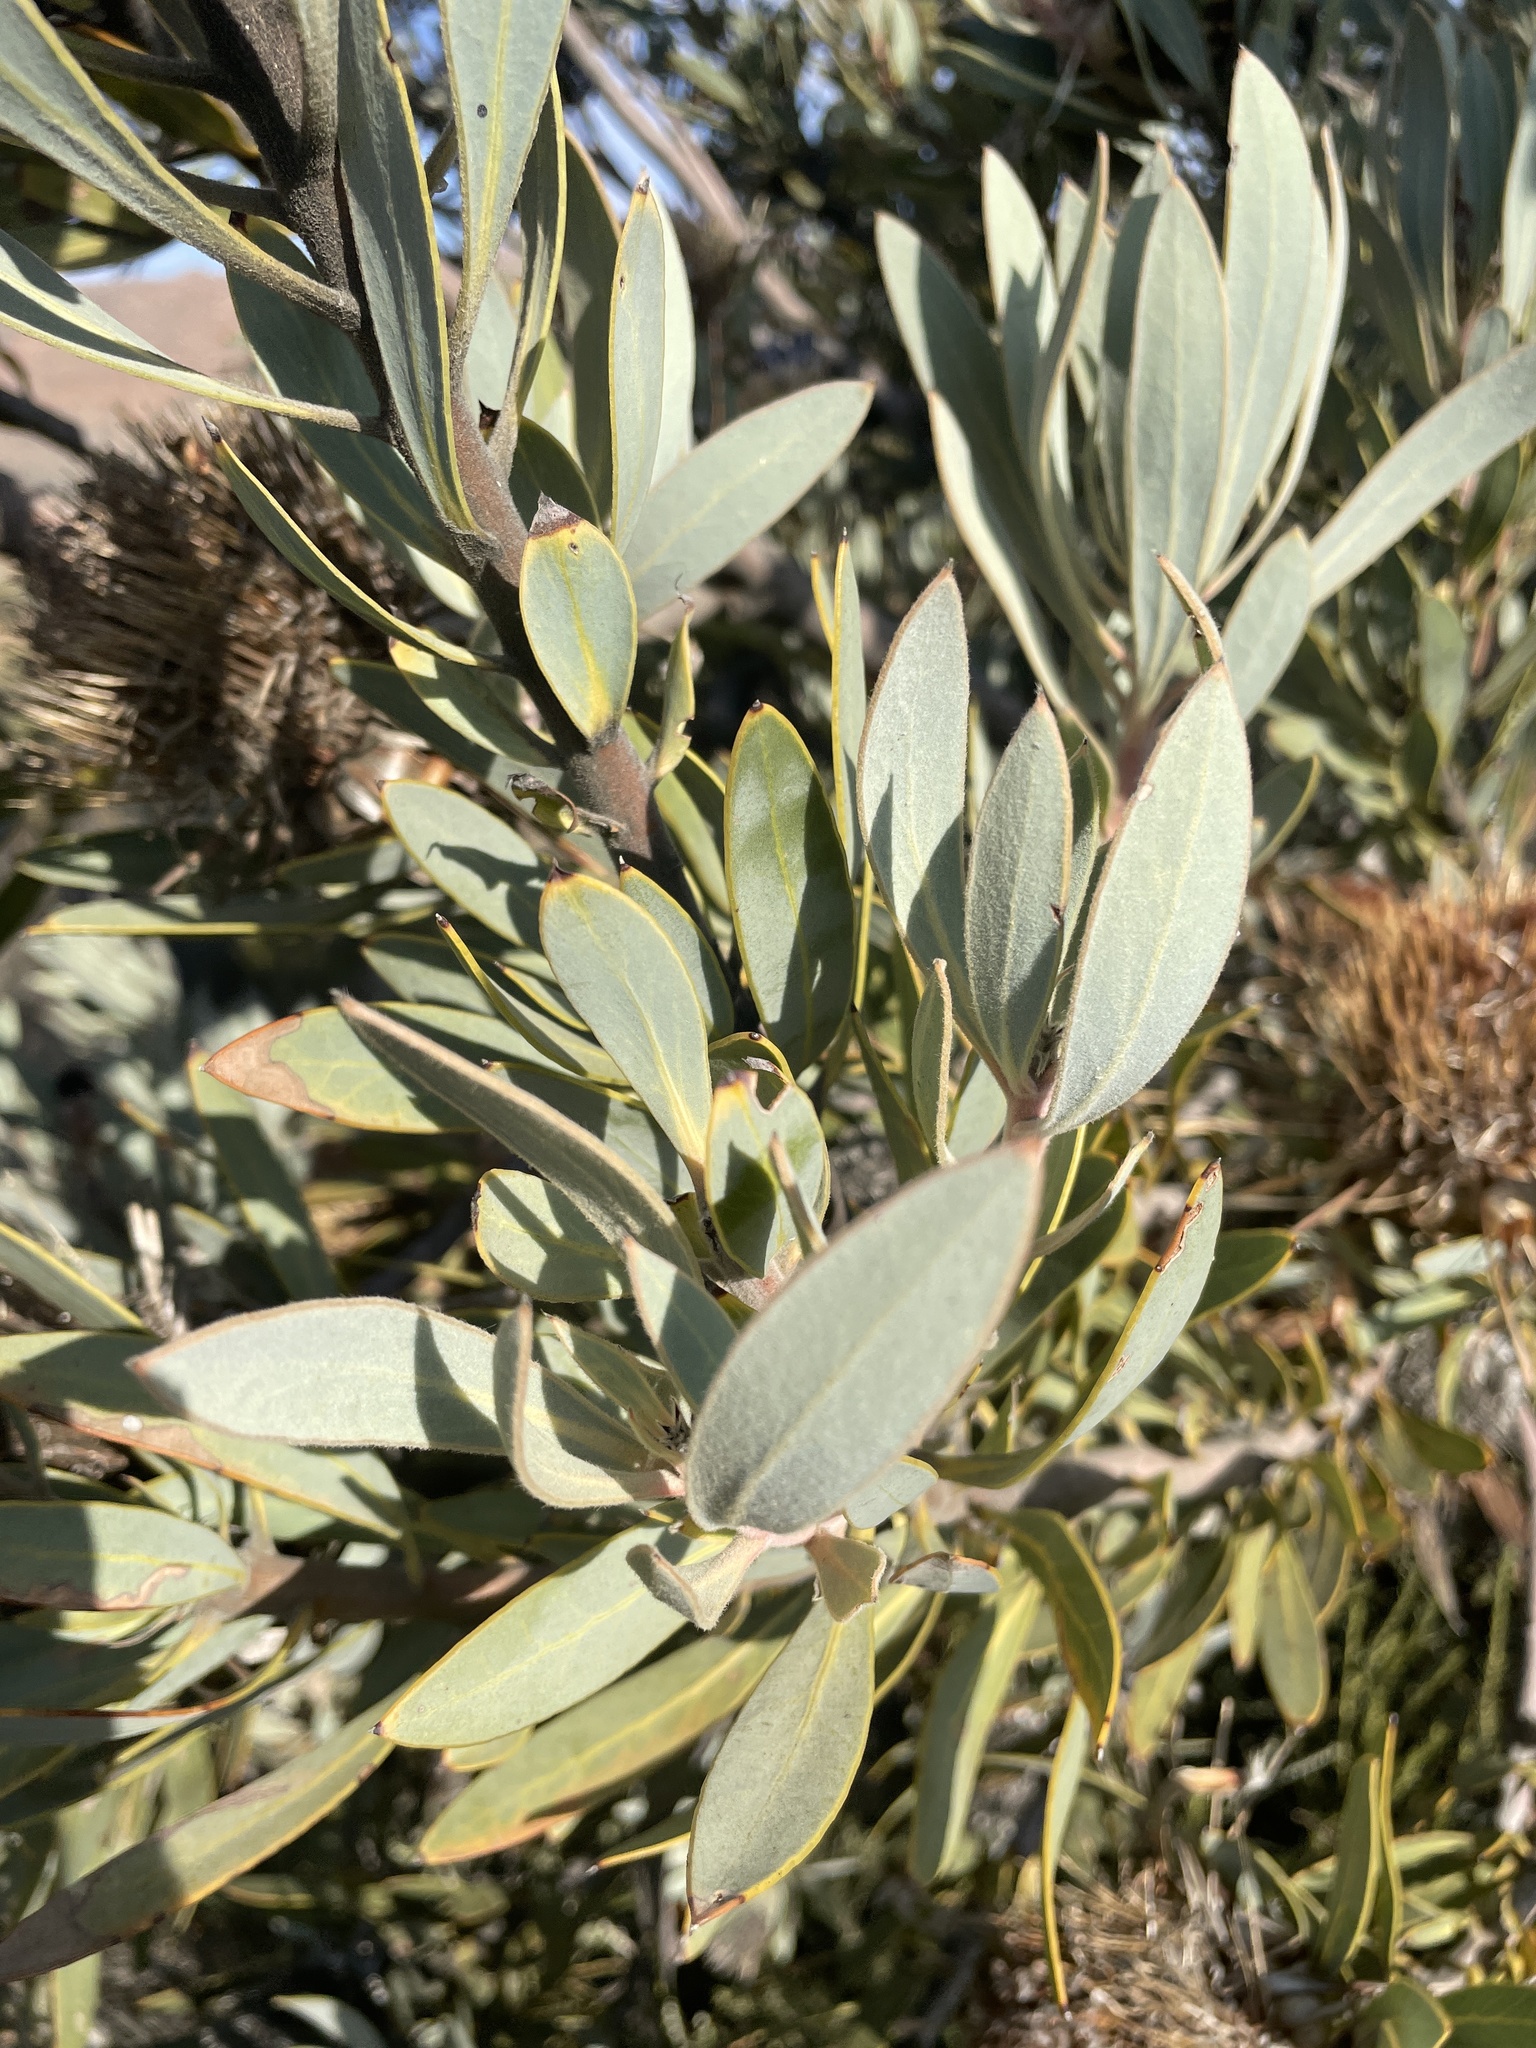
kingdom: Plantae
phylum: Tracheophyta
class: Magnoliopsida
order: Proteales
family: Proteaceae
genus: Protea
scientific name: Protea laurifolia
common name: Grey-leaf sugarbsh
